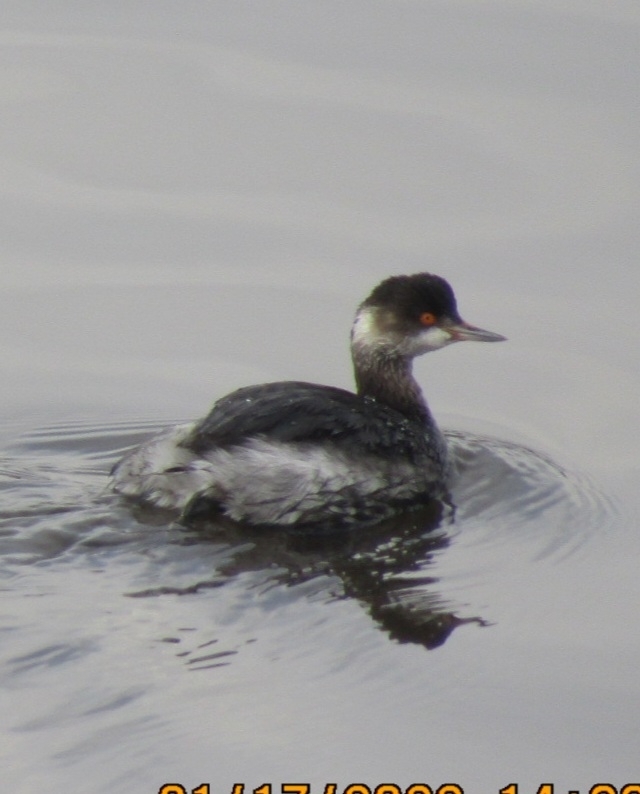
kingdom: Animalia
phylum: Chordata
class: Aves
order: Podicipediformes
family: Podicipedidae
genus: Podiceps
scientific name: Podiceps nigricollis
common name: Black-necked grebe
